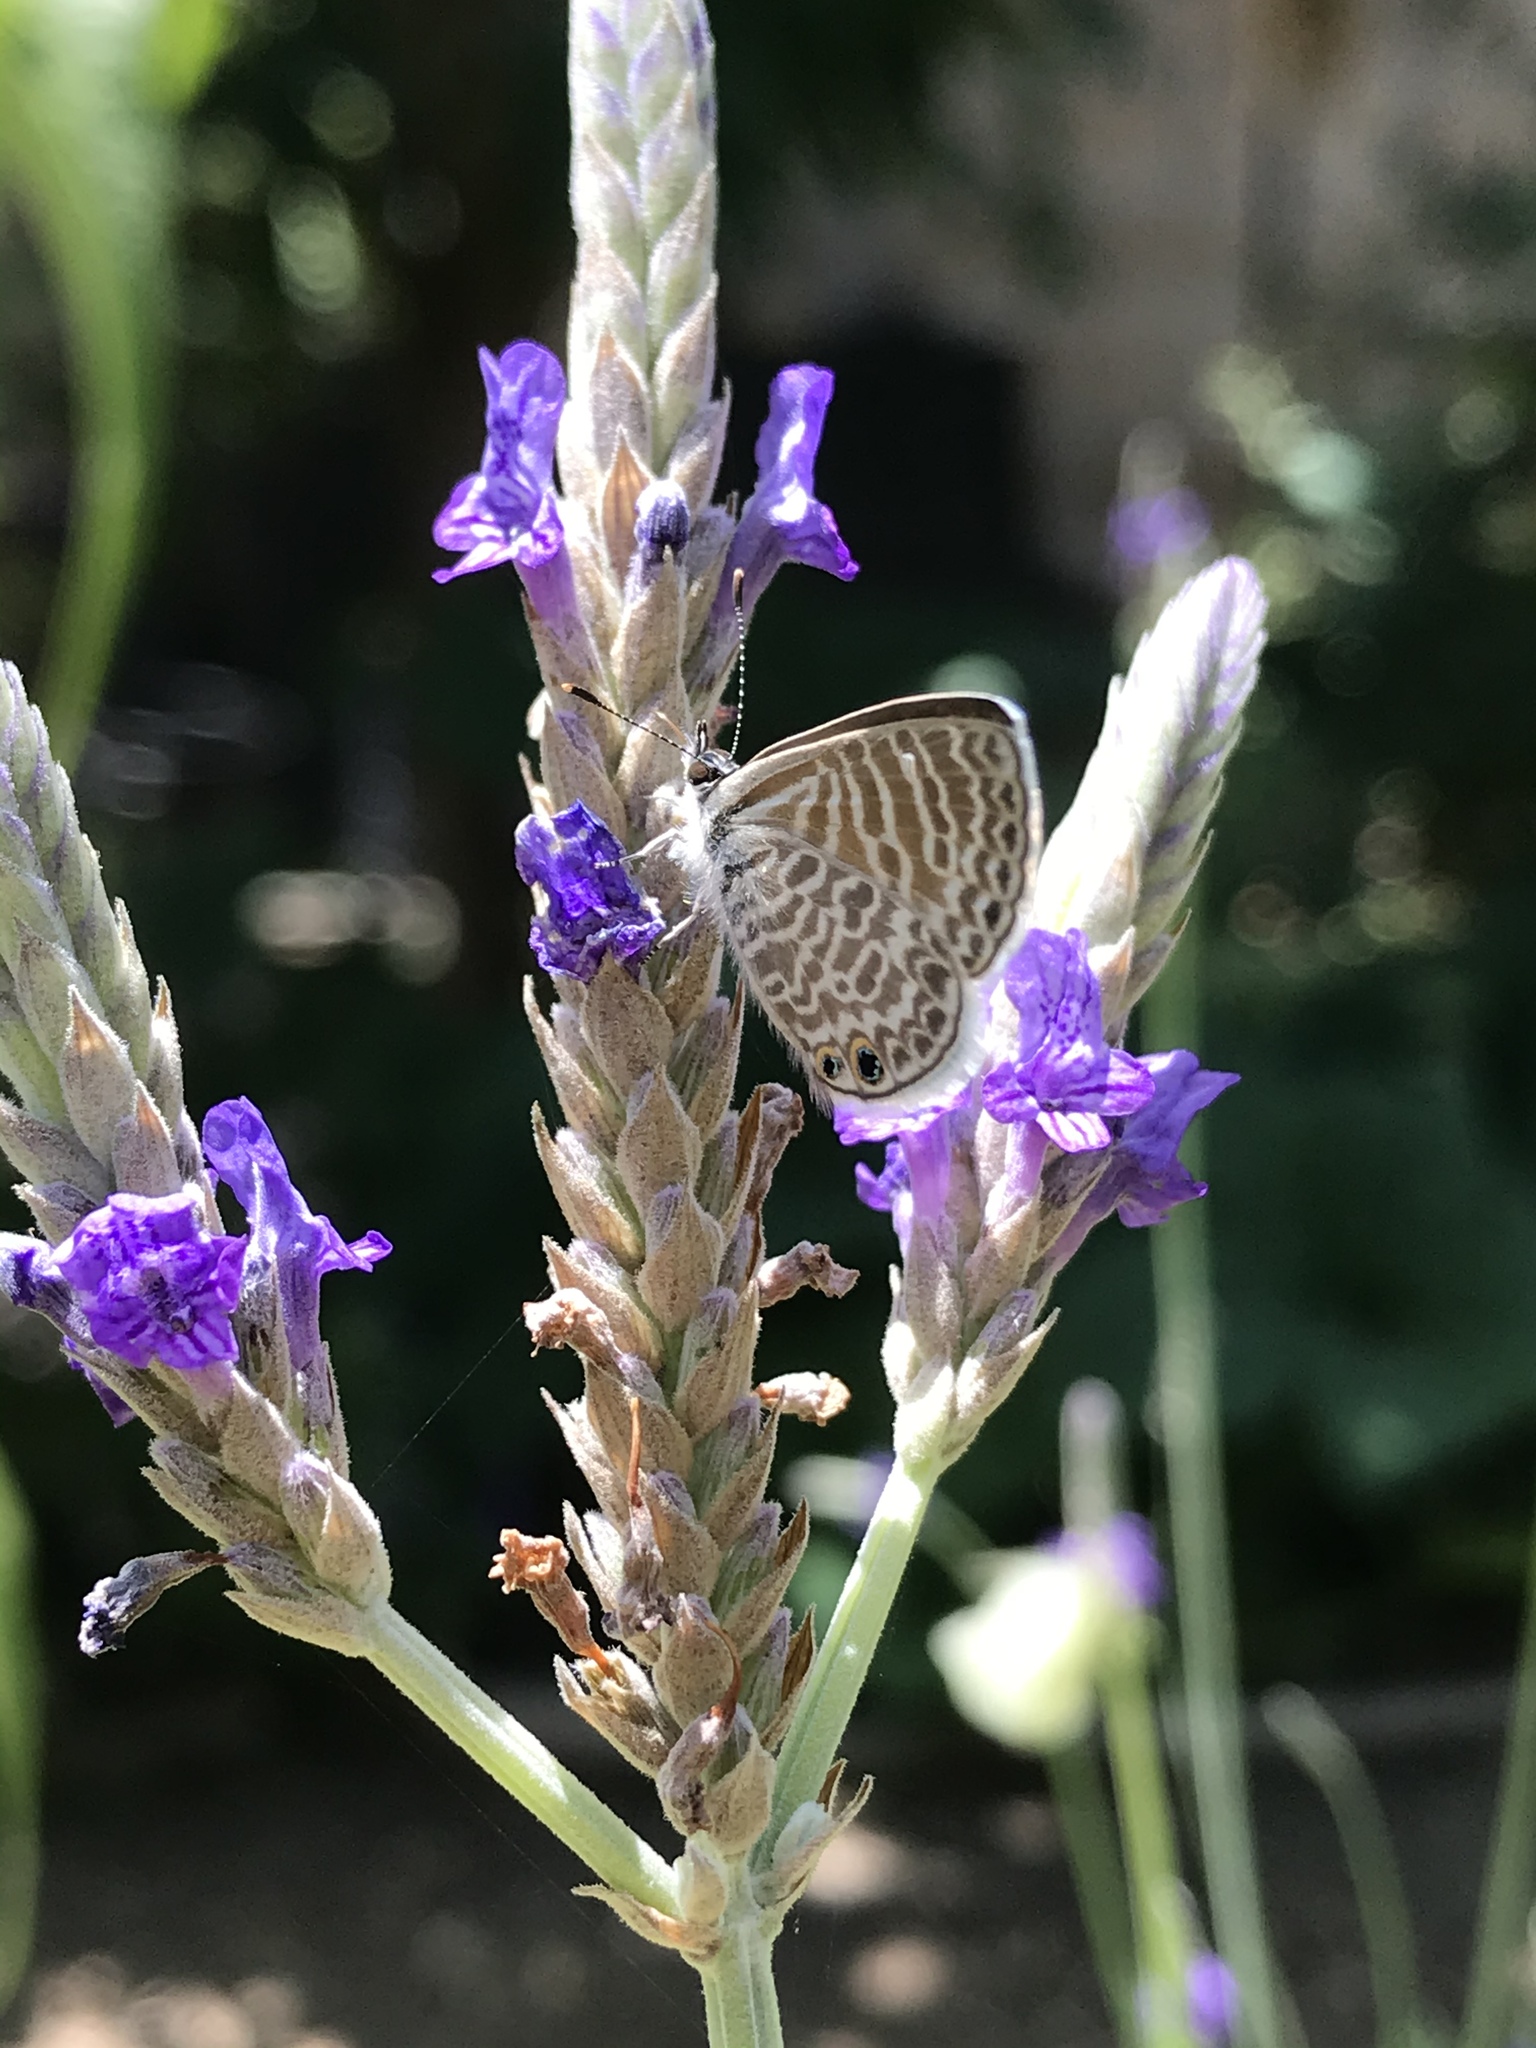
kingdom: Animalia
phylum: Arthropoda
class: Insecta
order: Lepidoptera
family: Lycaenidae
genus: Leptotes
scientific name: Leptotes marina
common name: Marine blue
